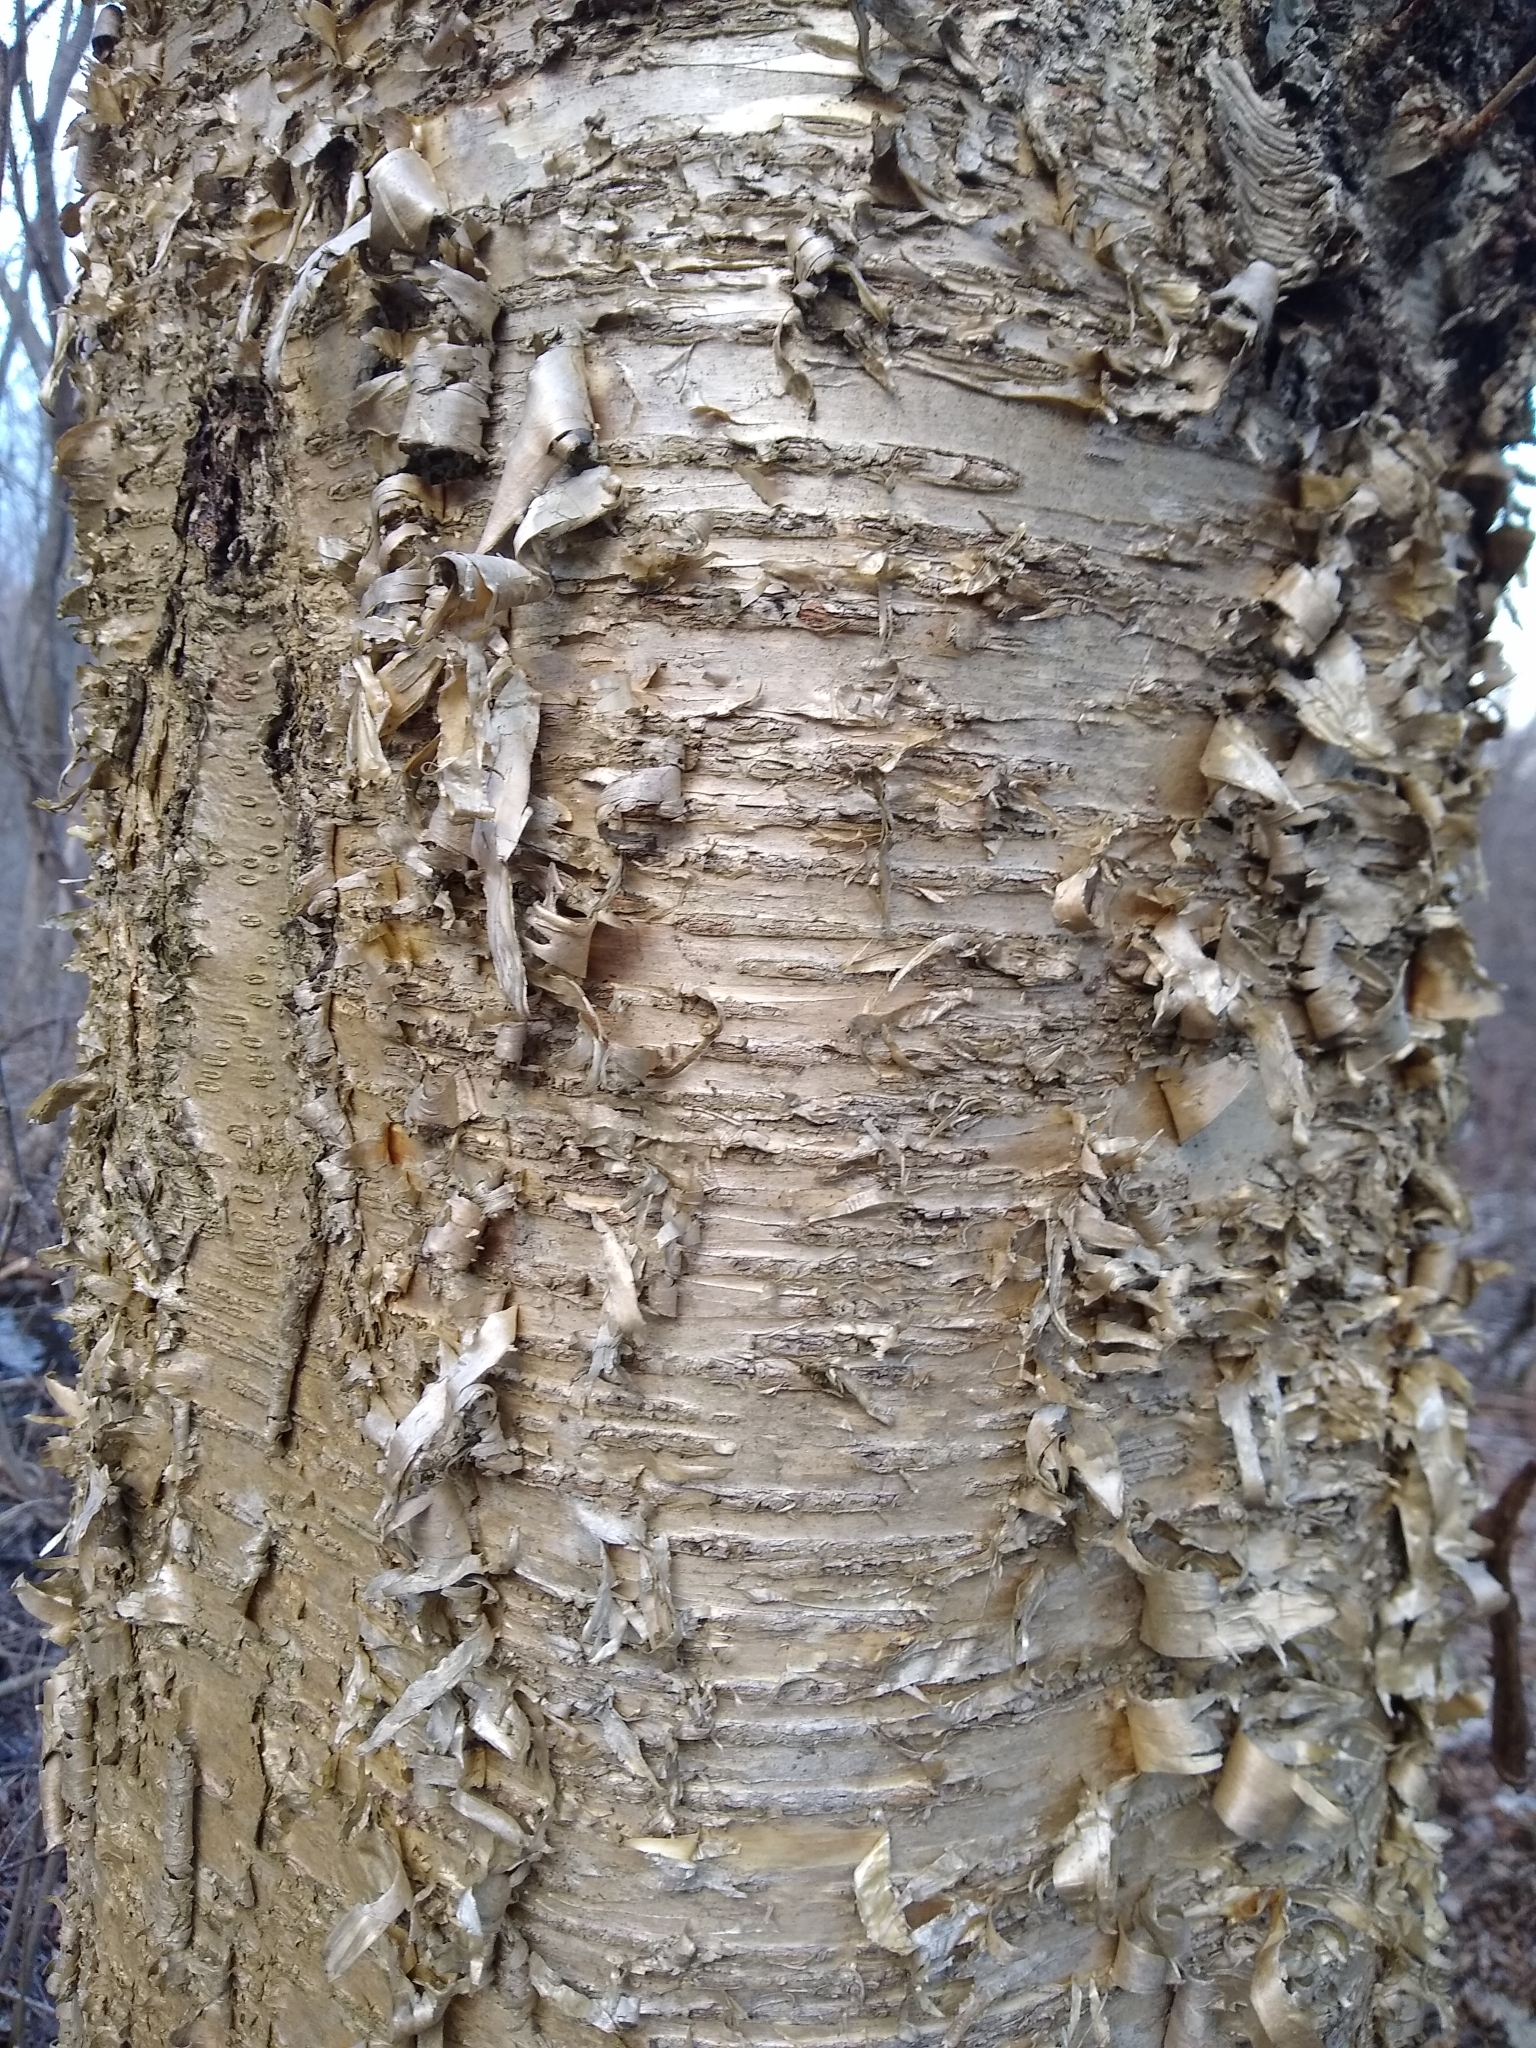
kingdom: Plantae
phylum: Tracheophyta
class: Magnoliopsida
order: Fagales
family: Betulaceae
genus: Betula
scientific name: Betula alleghaniensis
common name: Yellow birch
